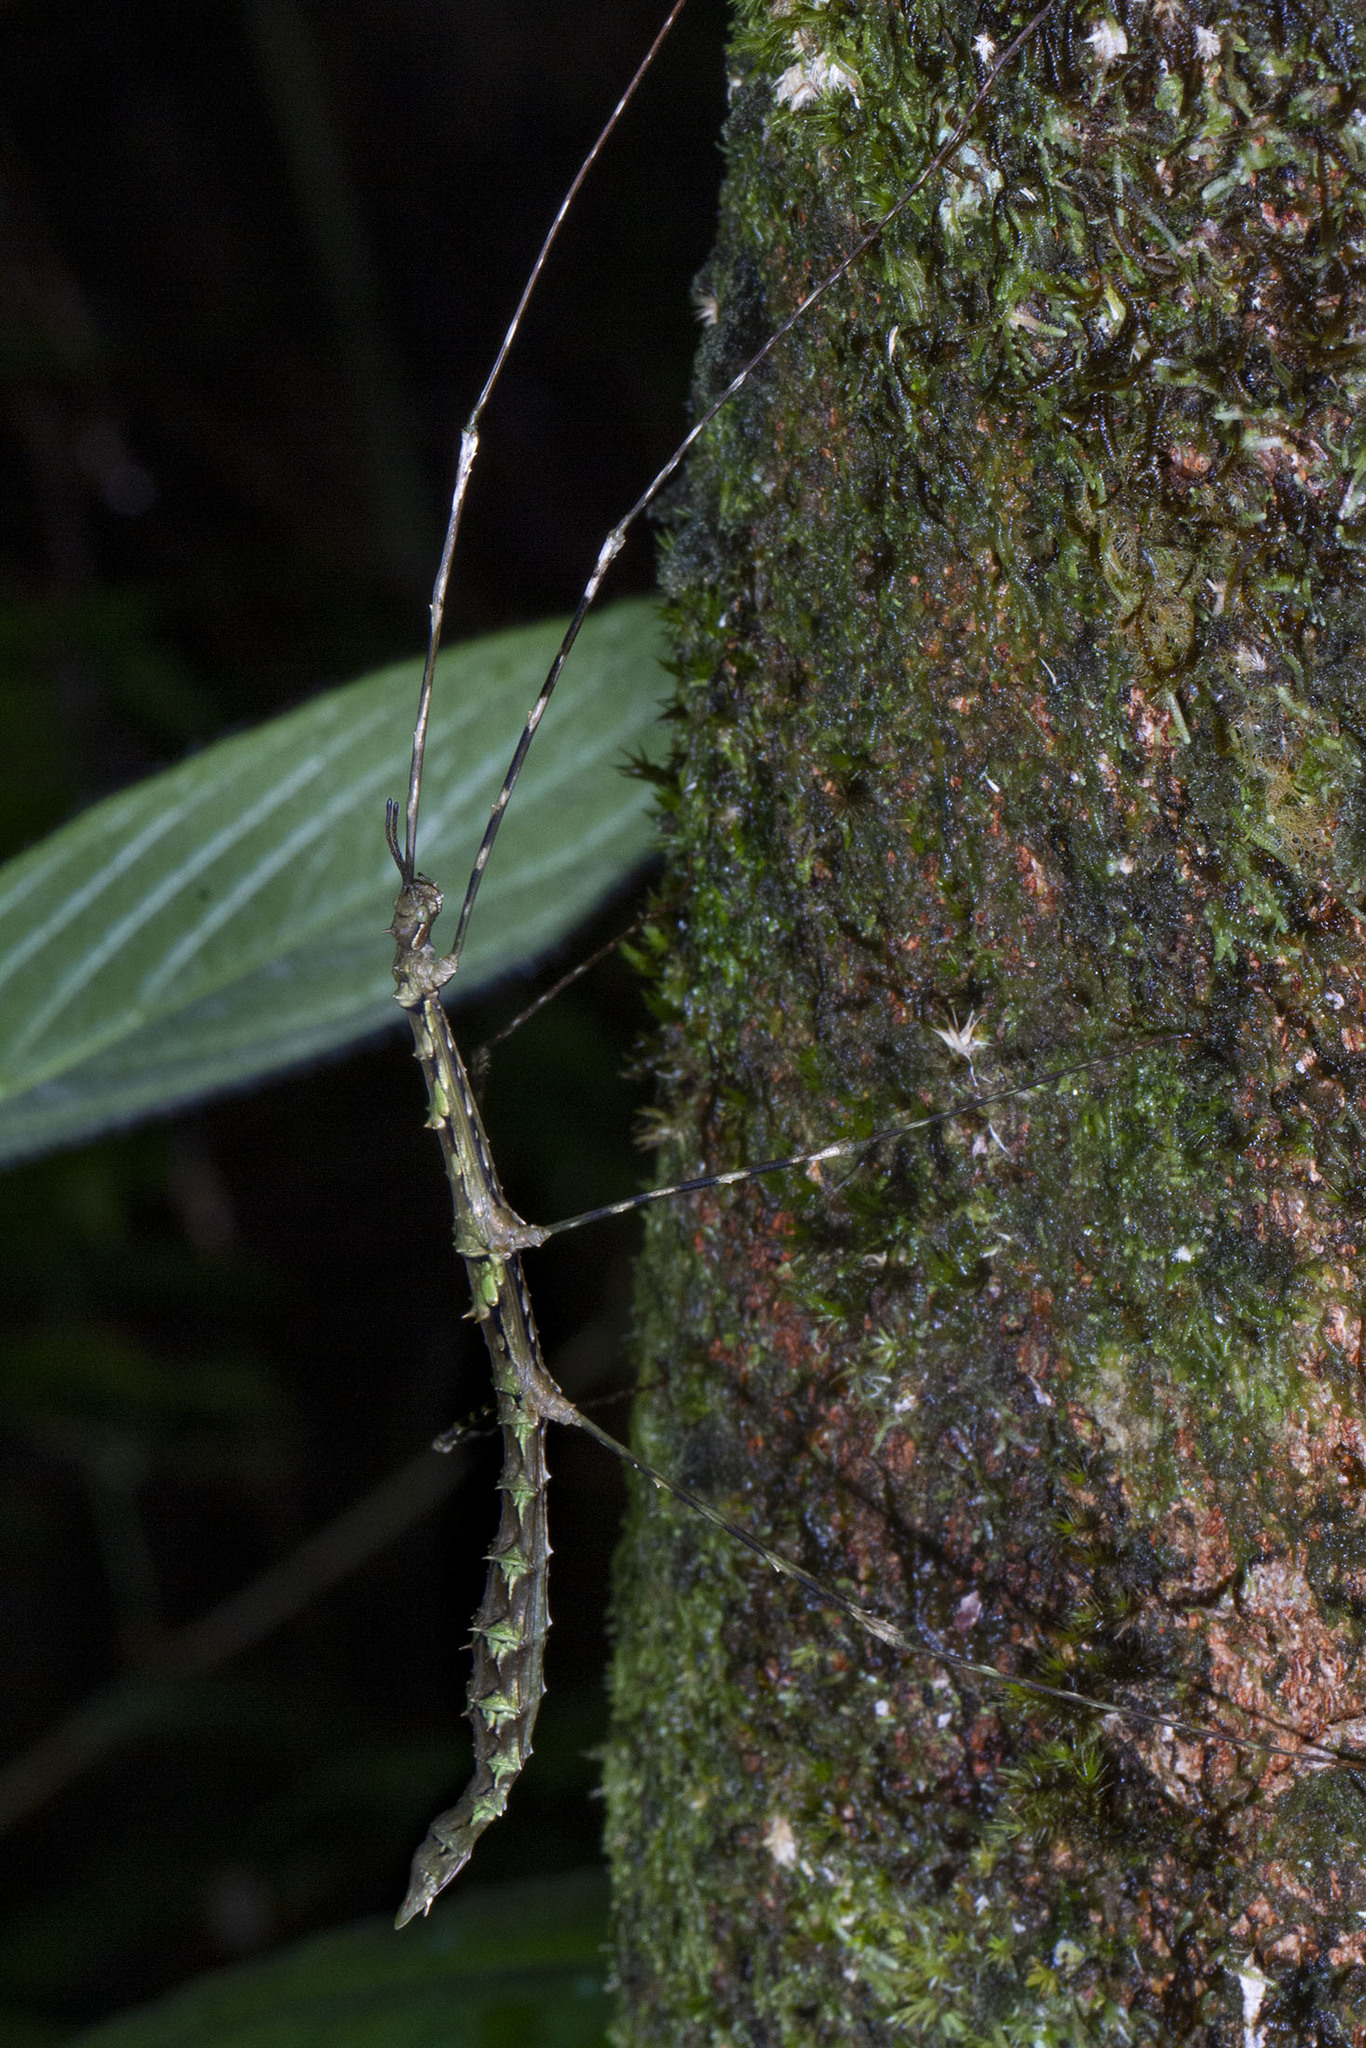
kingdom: Animalia
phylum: Arthropoda
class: Insecta
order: Phasmida
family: Bacillidae
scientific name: Bacillidae
